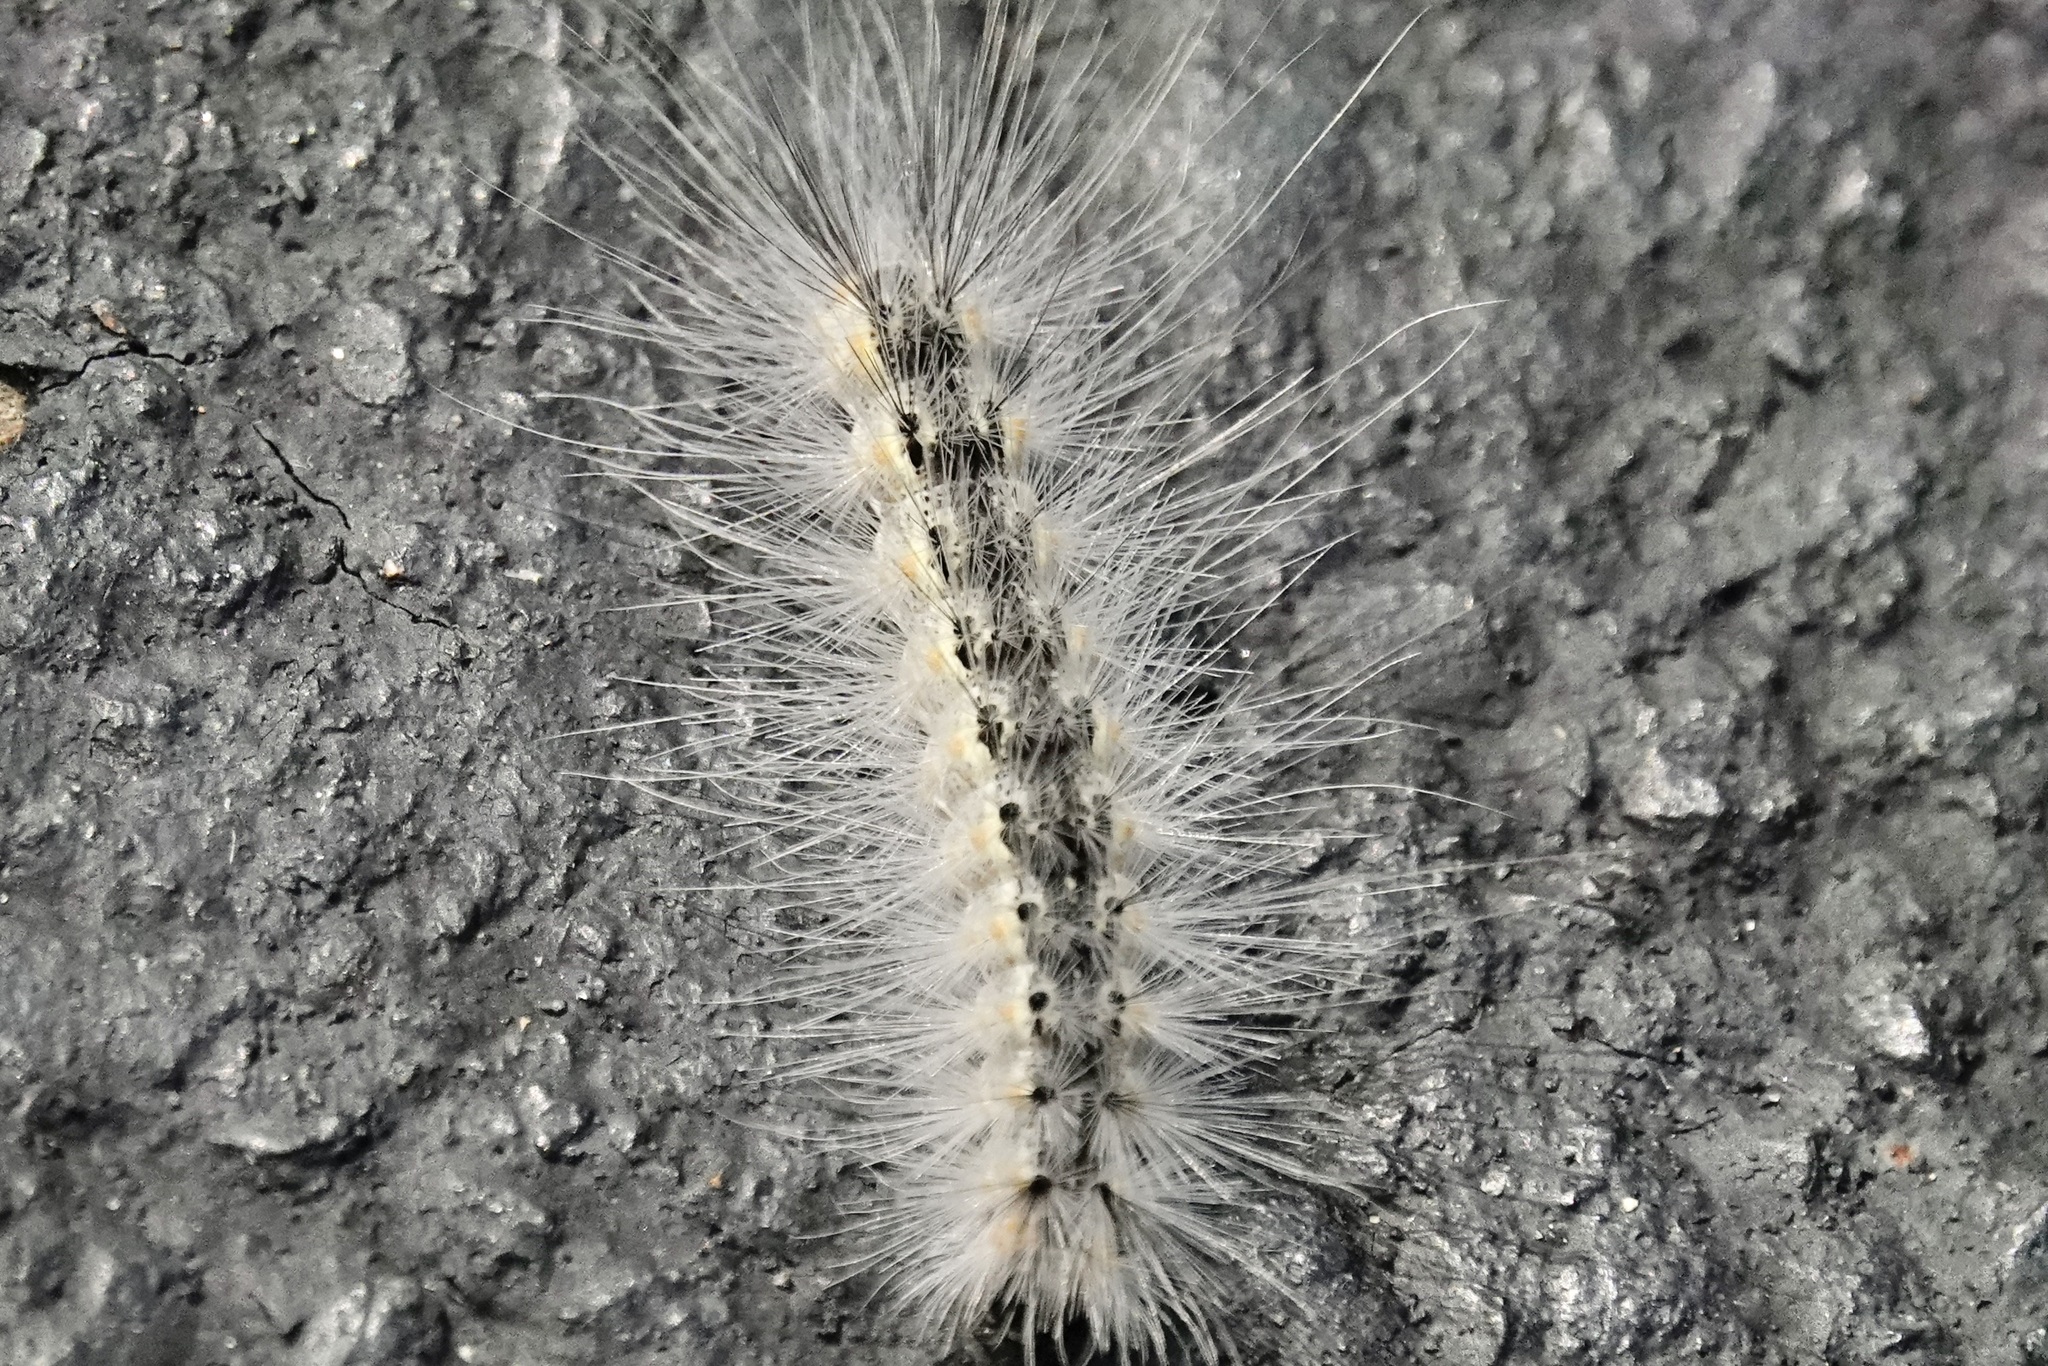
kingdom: Animalia
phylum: Arthropoda
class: Insecta
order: Lepidoptera
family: Erebidae
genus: Hyphantria
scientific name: Hyphantria cunea
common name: American white moth
